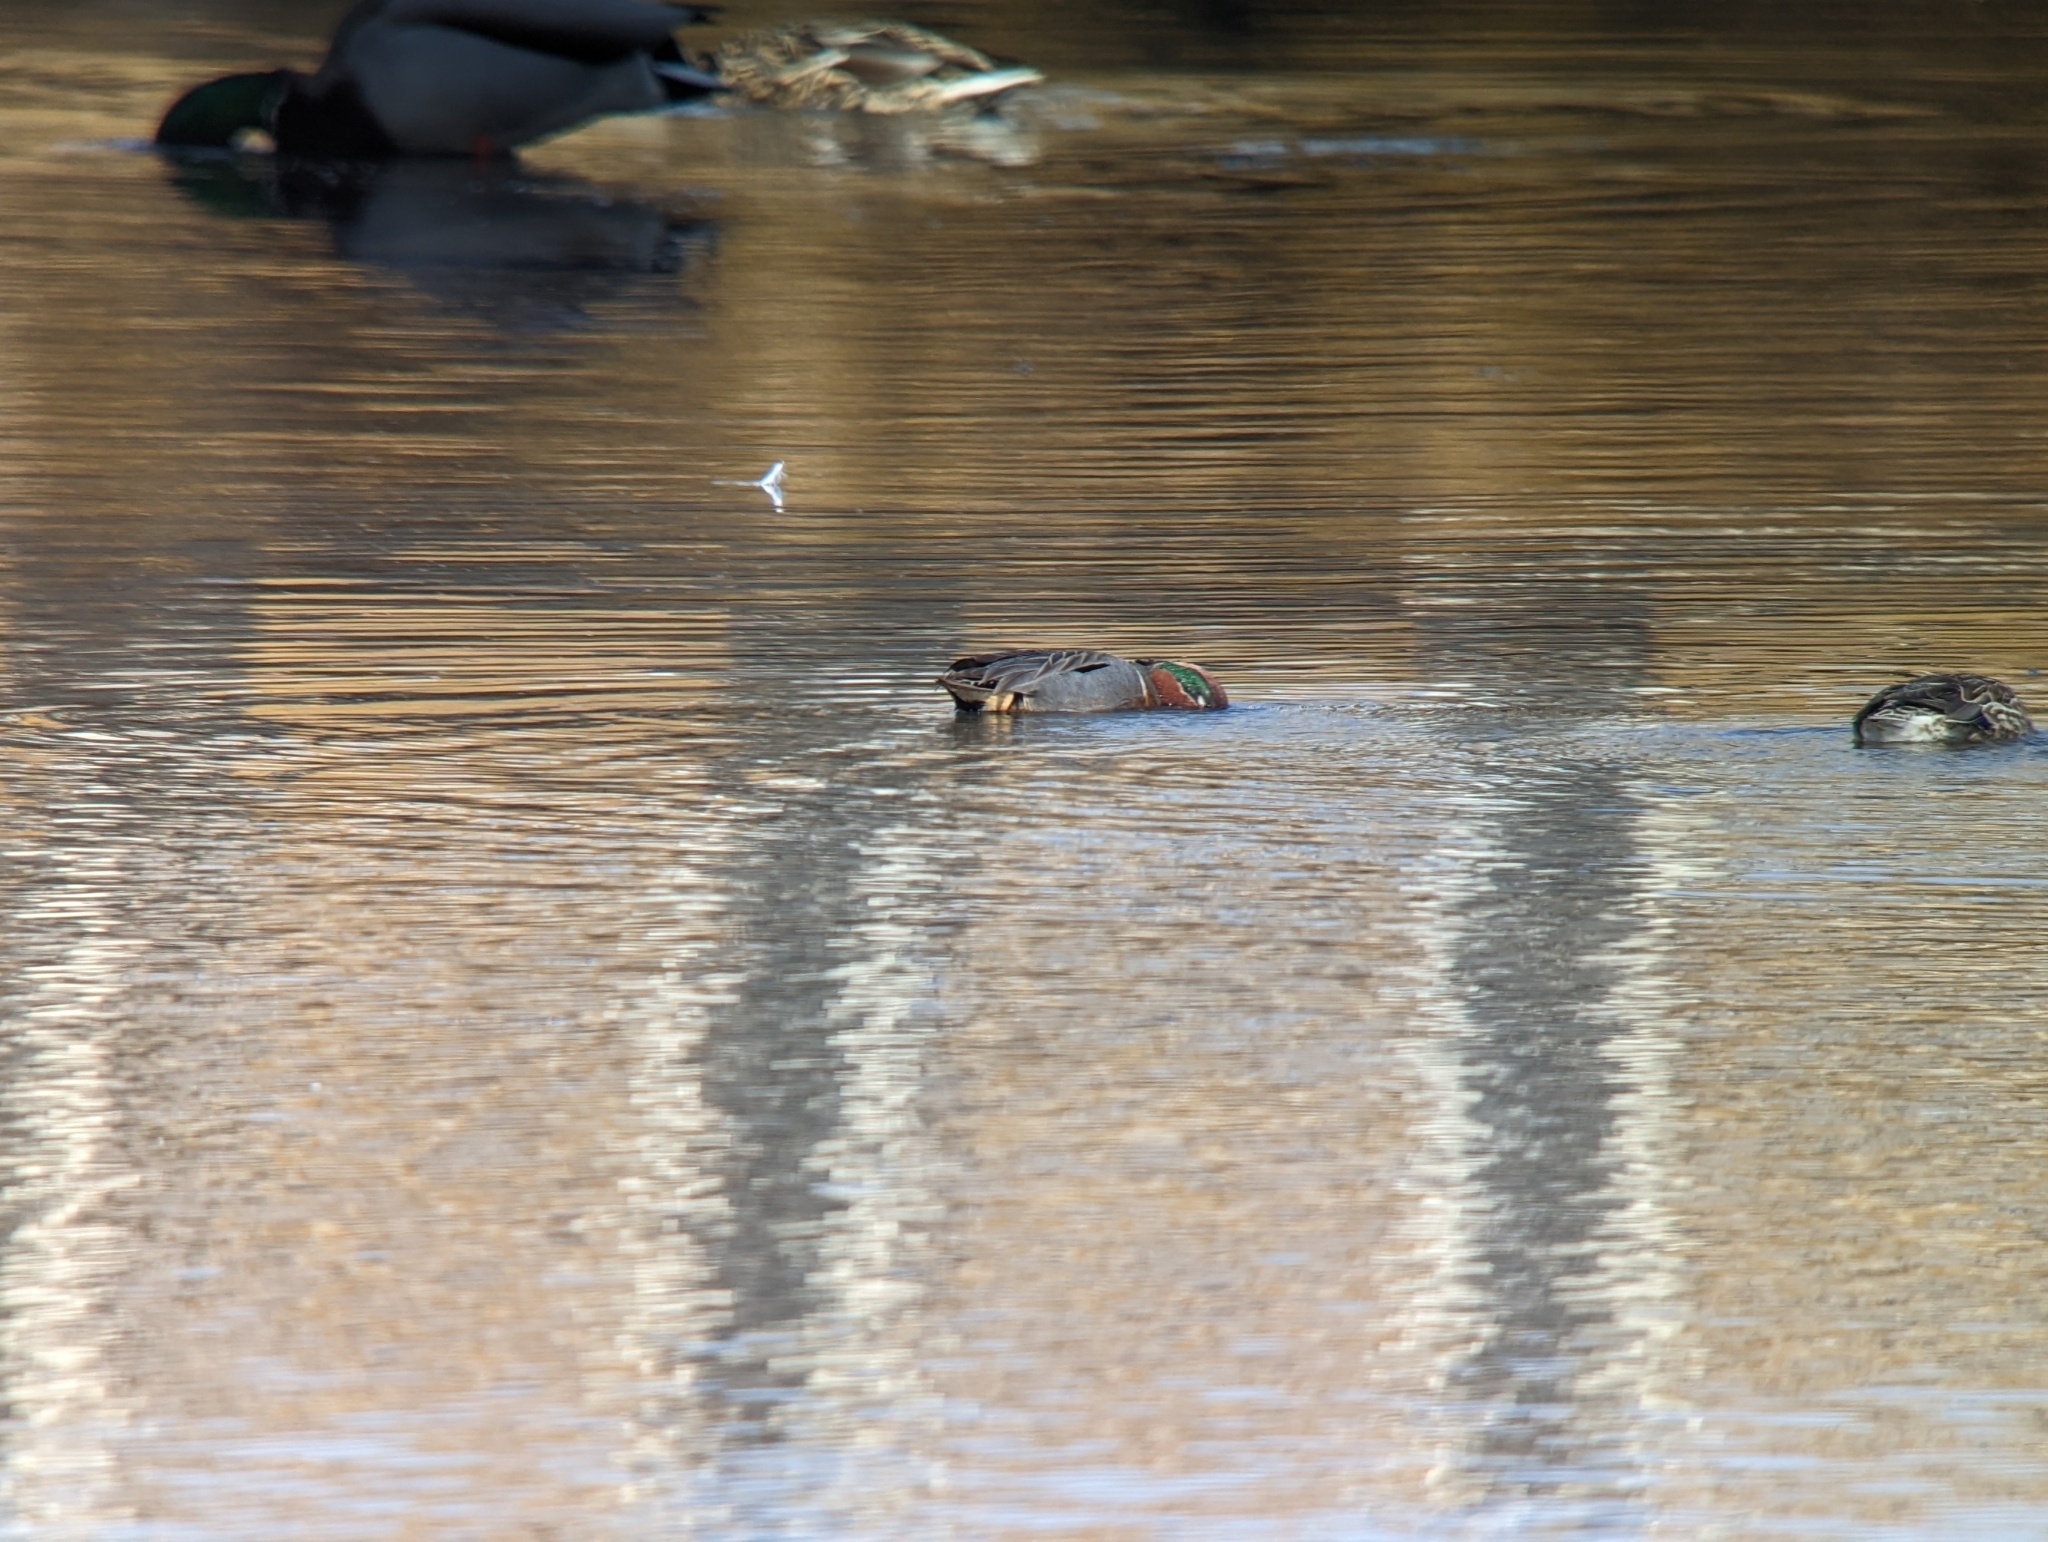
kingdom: Animalia
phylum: Chordata
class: Aves
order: Anseriformes
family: Anatidae
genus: Anas
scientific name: Anas carolinensis
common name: Green-winged teal
